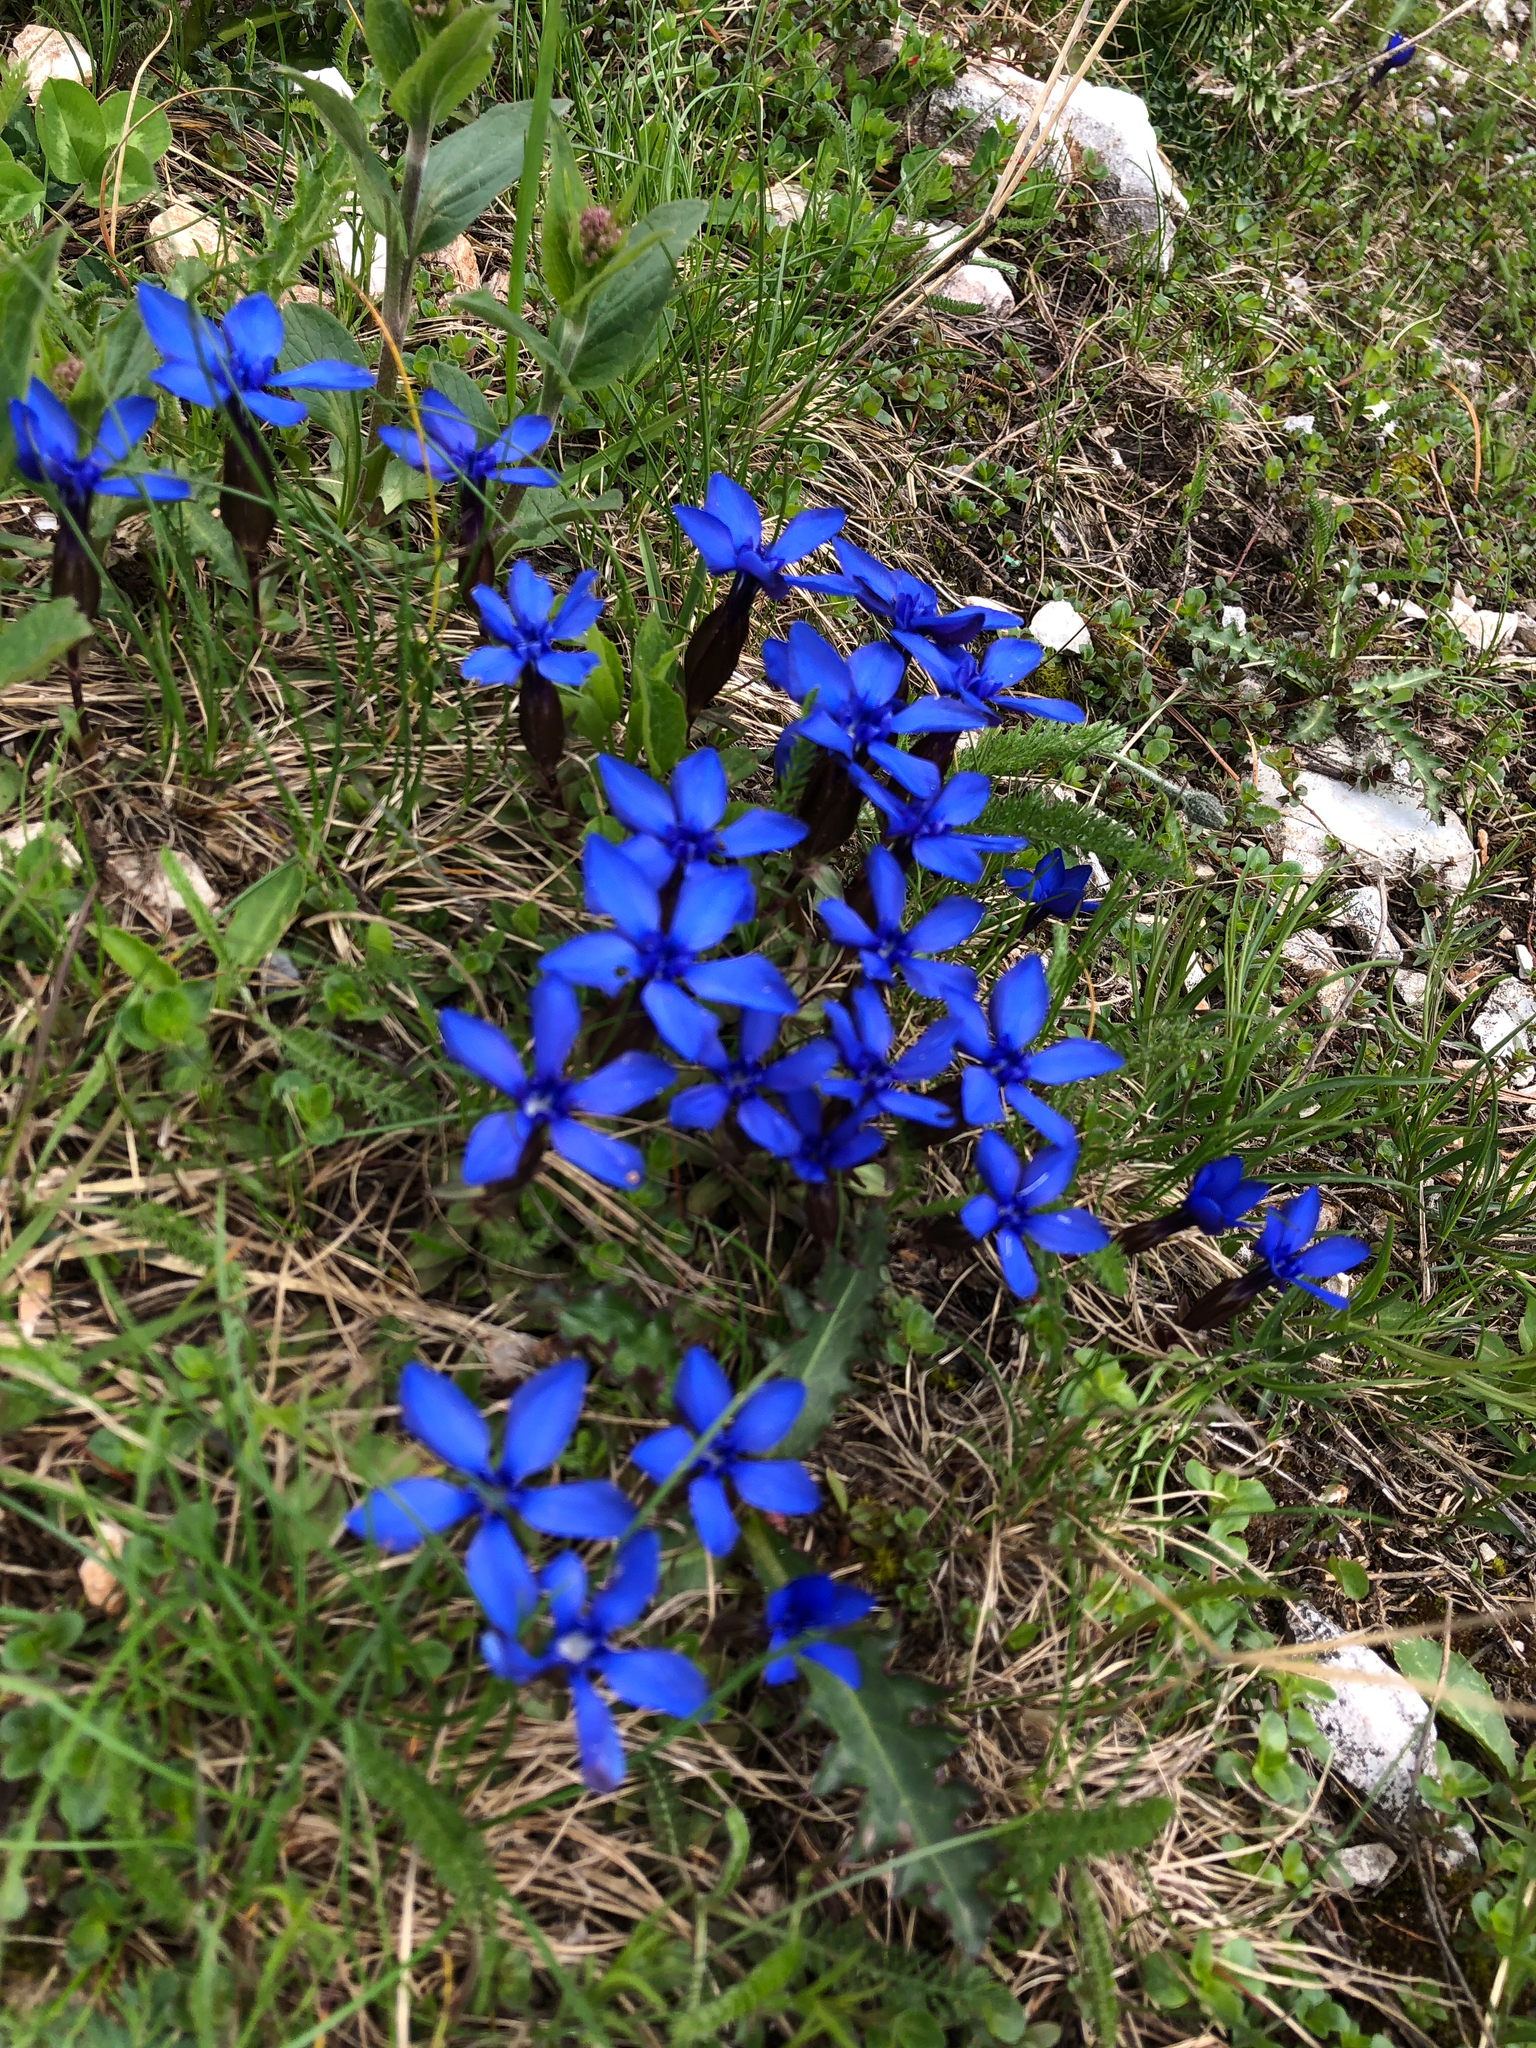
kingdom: Plantae
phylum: Tracheophyta
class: Magnoliopsida
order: Gentianales
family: Gentianaceae
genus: Gentiana
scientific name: Gentiana verna
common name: Spring gentian
